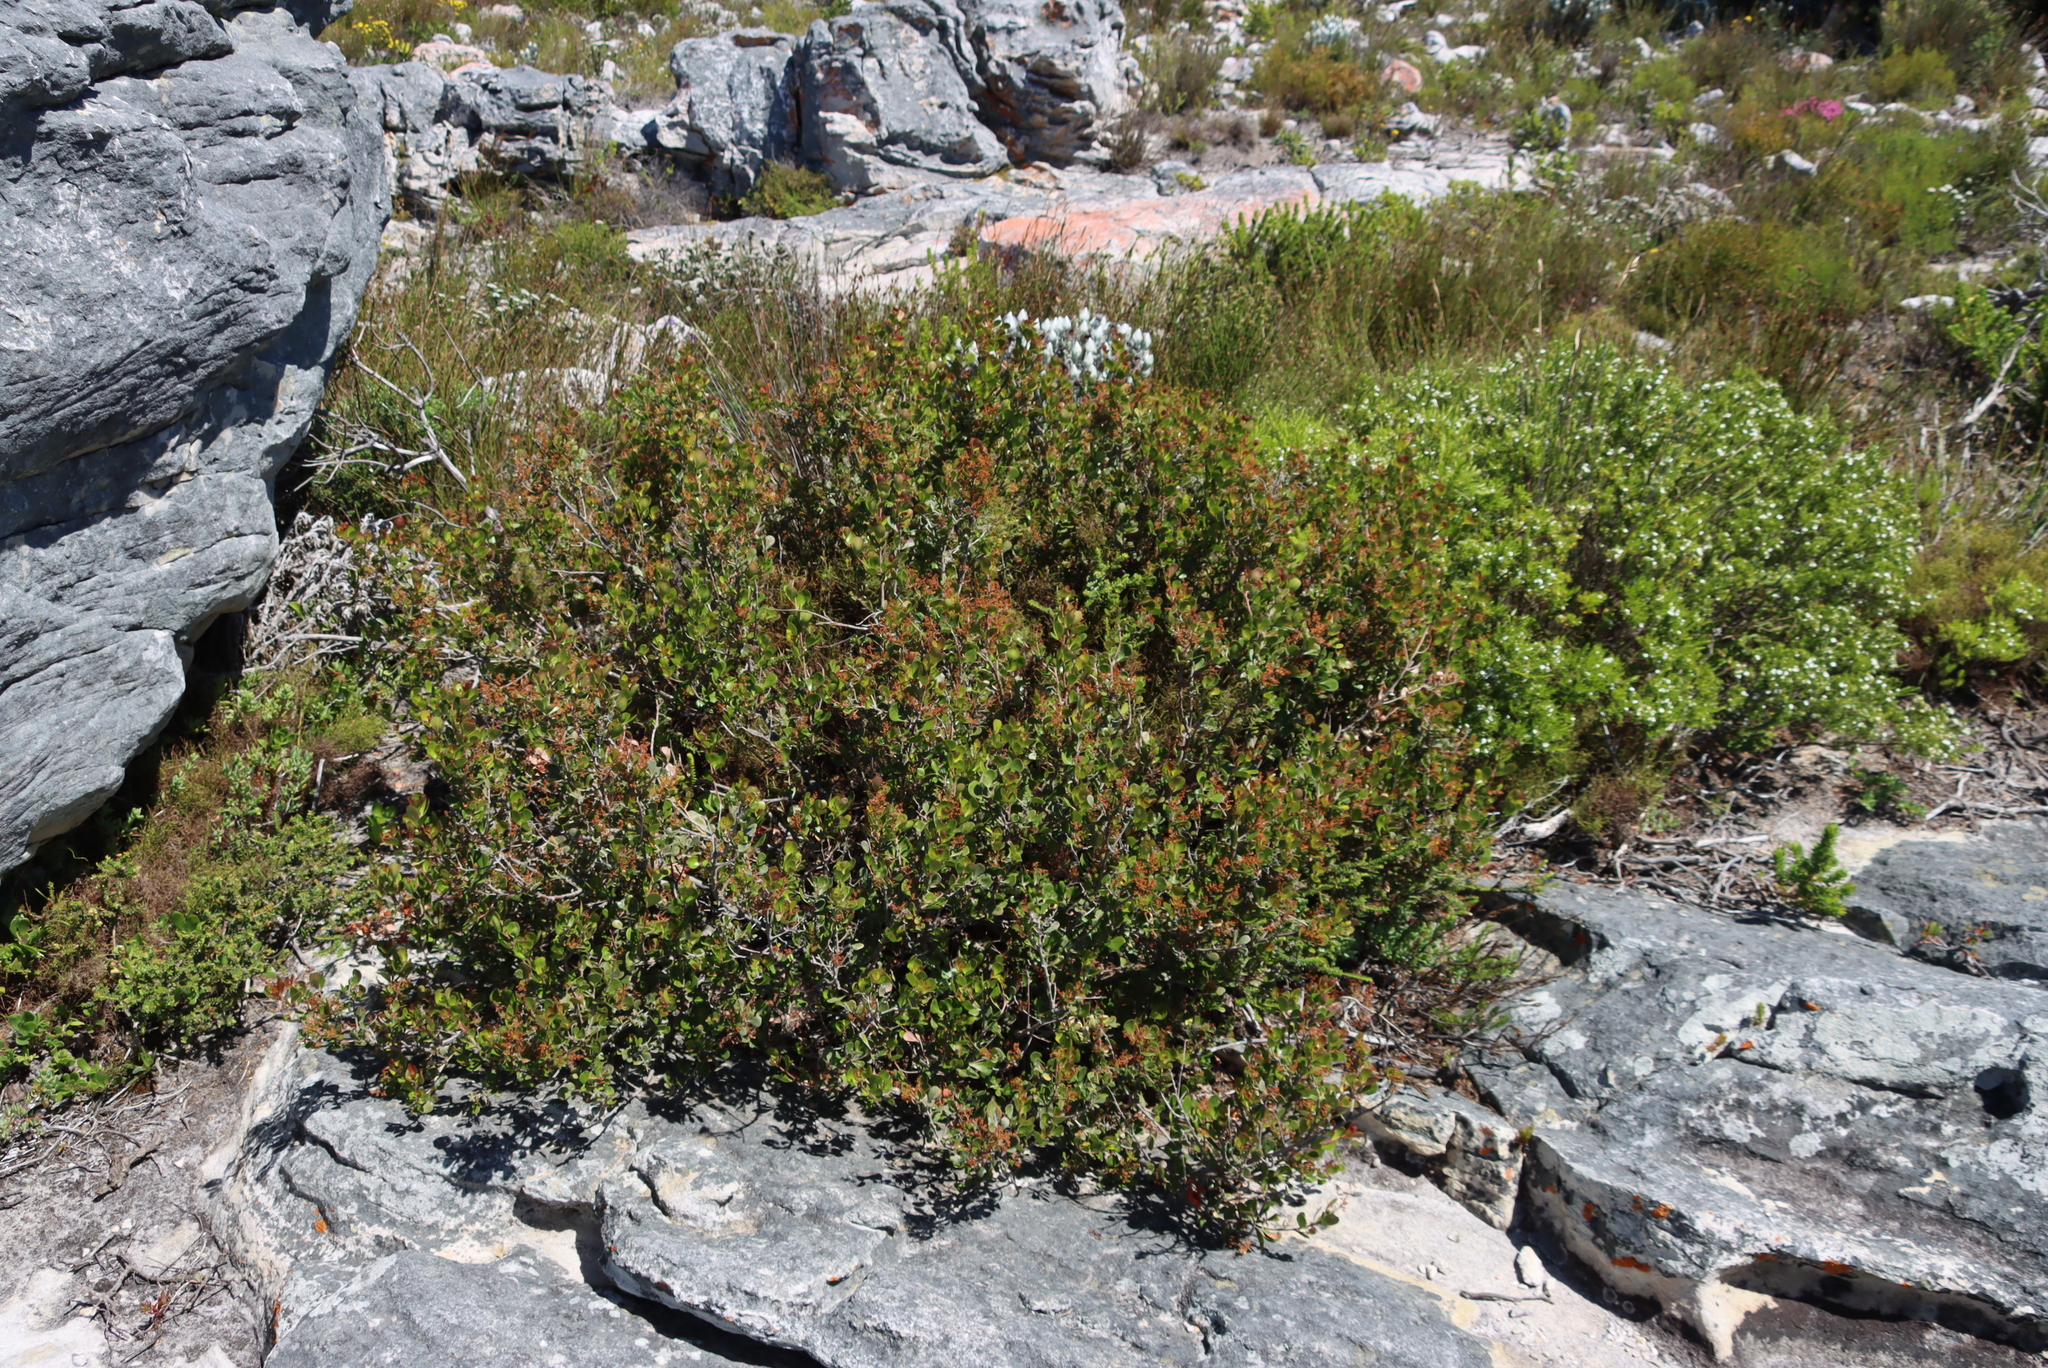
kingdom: Plantae
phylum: Tracheophyta
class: Magnoliopsida
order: Sapindales
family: Anacardiaceae
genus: Searsia
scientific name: Searsia lucida
